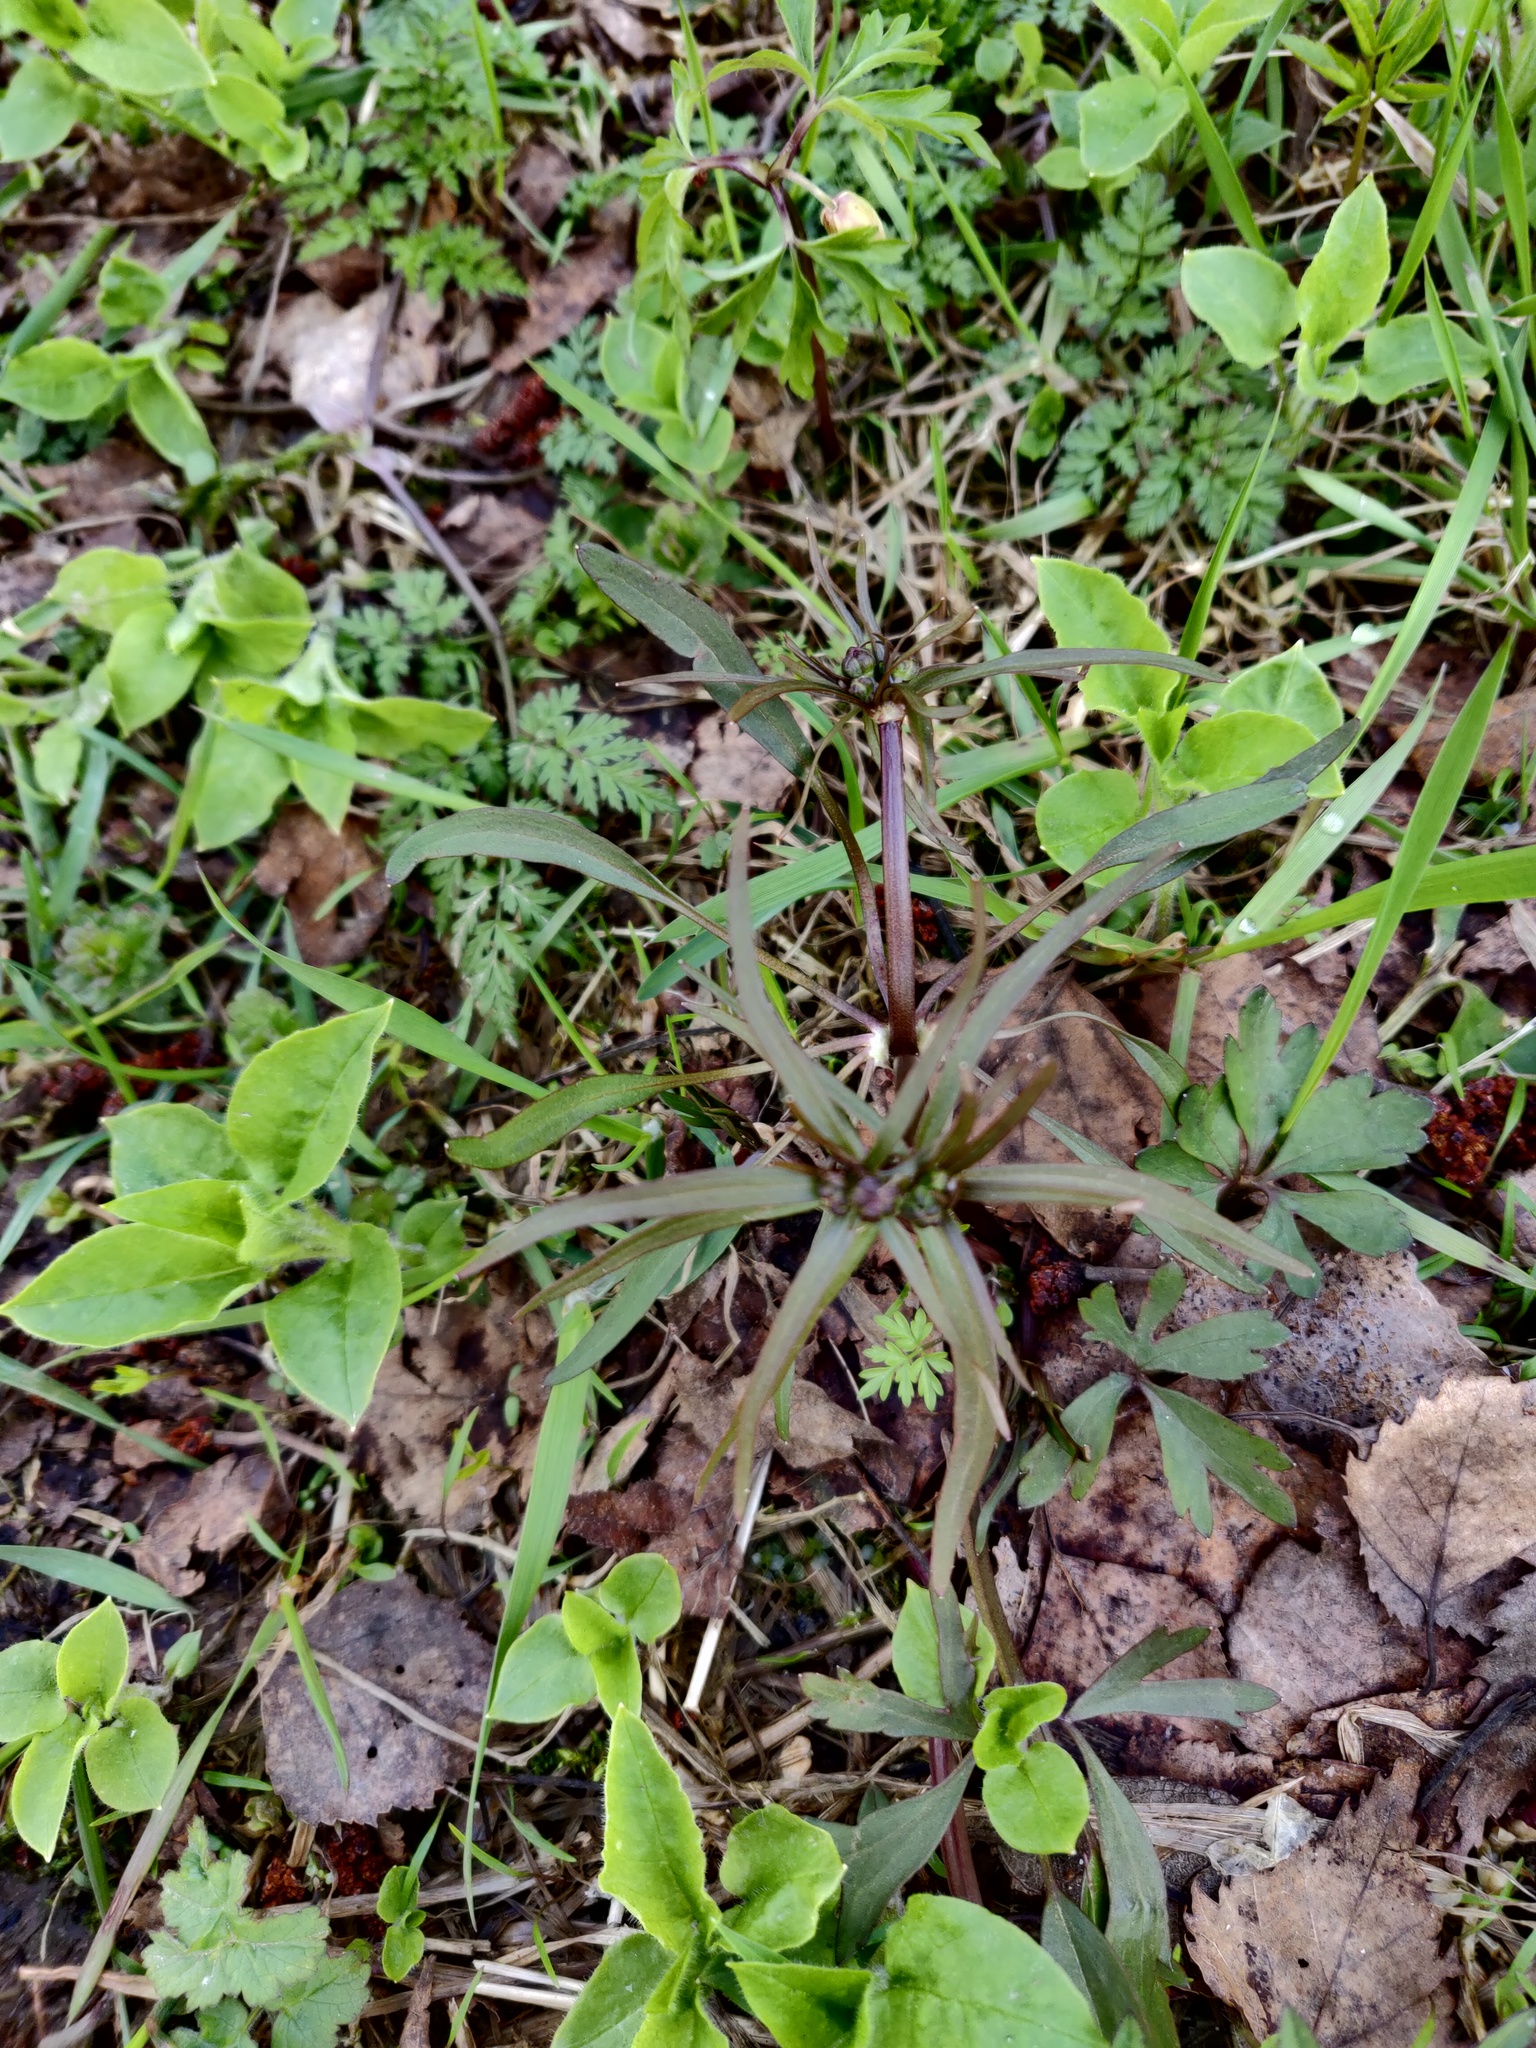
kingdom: Plantae
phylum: Tracheophyta
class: Magnoliopsida
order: Ranunculales
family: Ranunculaceae
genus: Ranunculus
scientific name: Ranunculus auricomus
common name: Goldilocks buttercup
